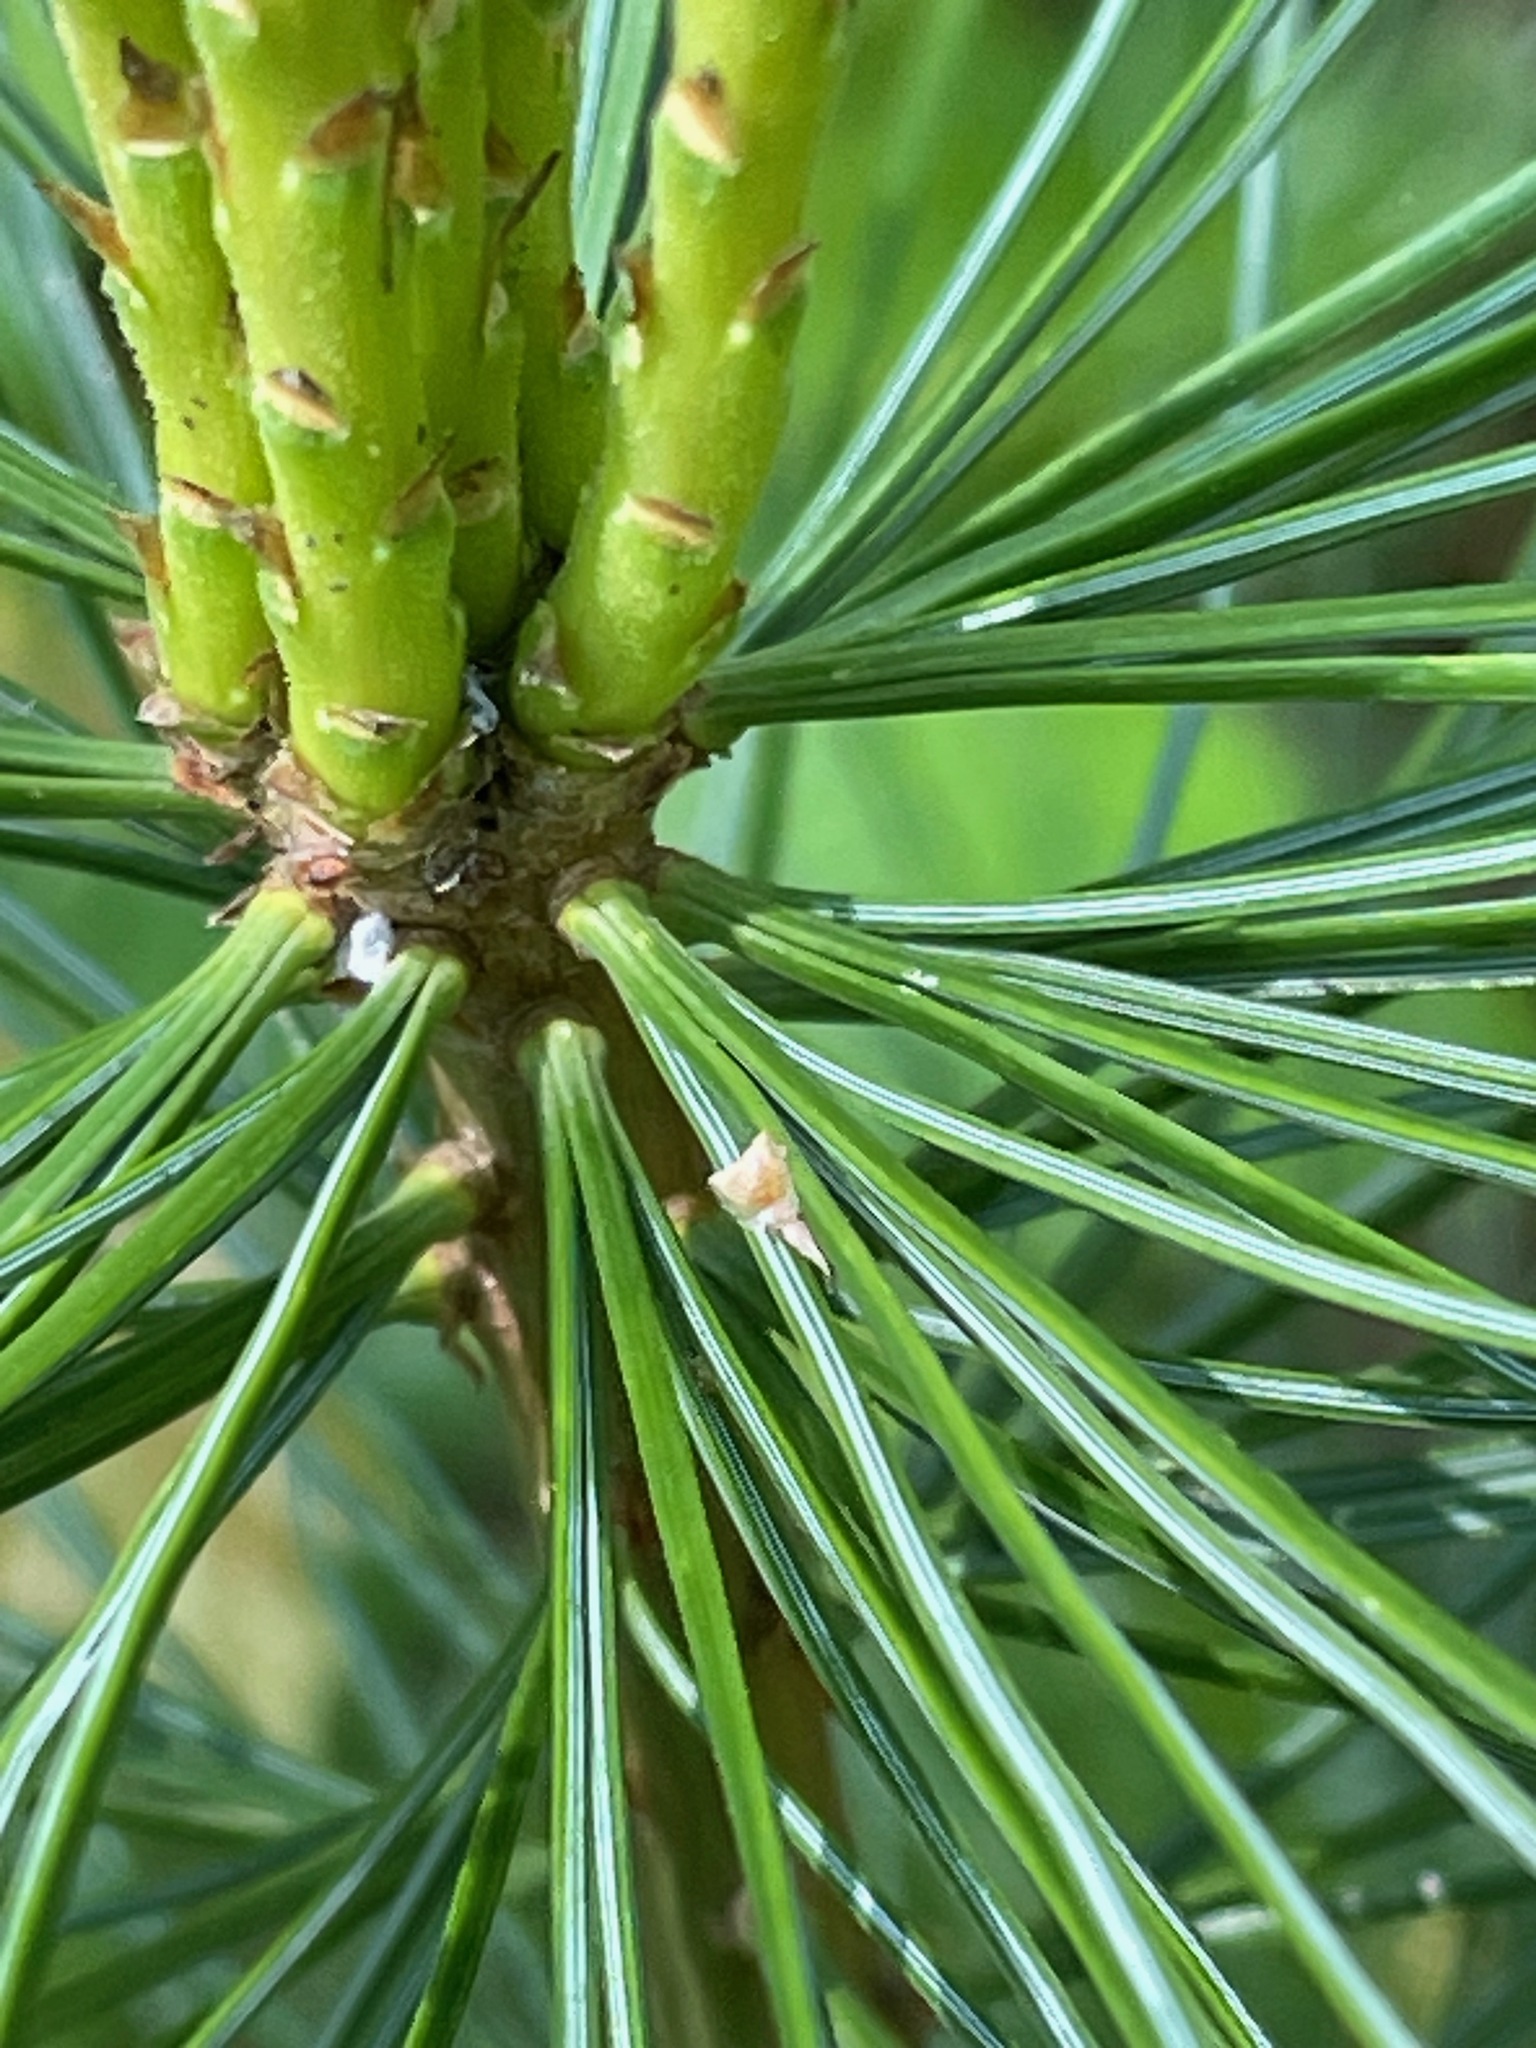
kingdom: Plantae
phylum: Tracheophyta
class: Pinopsida
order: Pinales
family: Pinaceae
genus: Pinus
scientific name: Pinus strobus
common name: Weymouth pine
